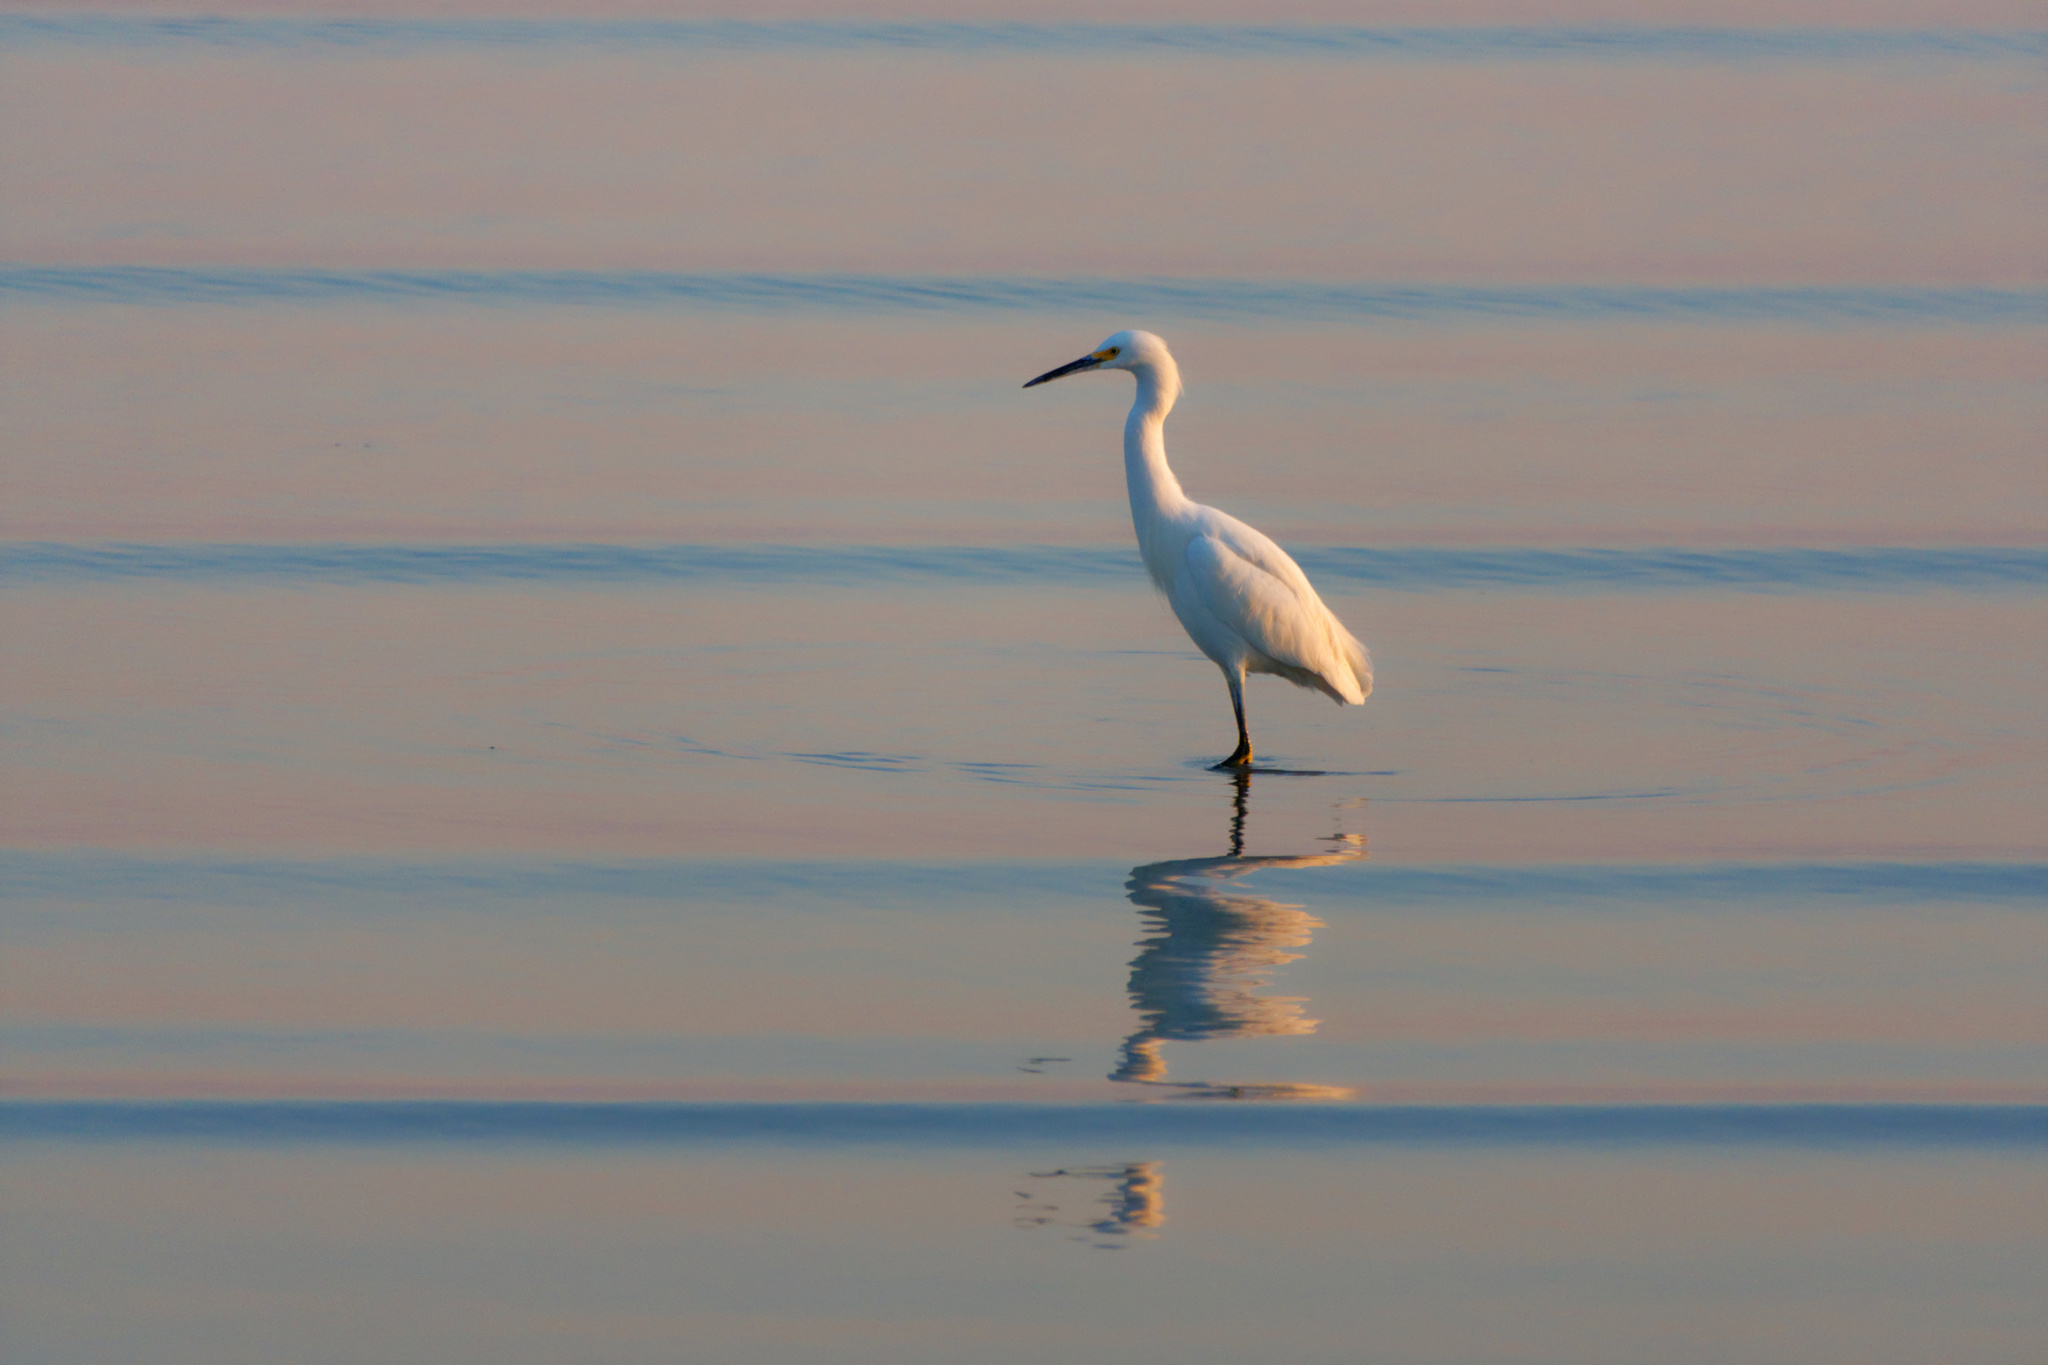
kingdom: Animalia
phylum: Chordata
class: Aves
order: Pelecaniformes
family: Ardeidae
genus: Egretta
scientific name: Egretta thula
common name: Snowy egret
